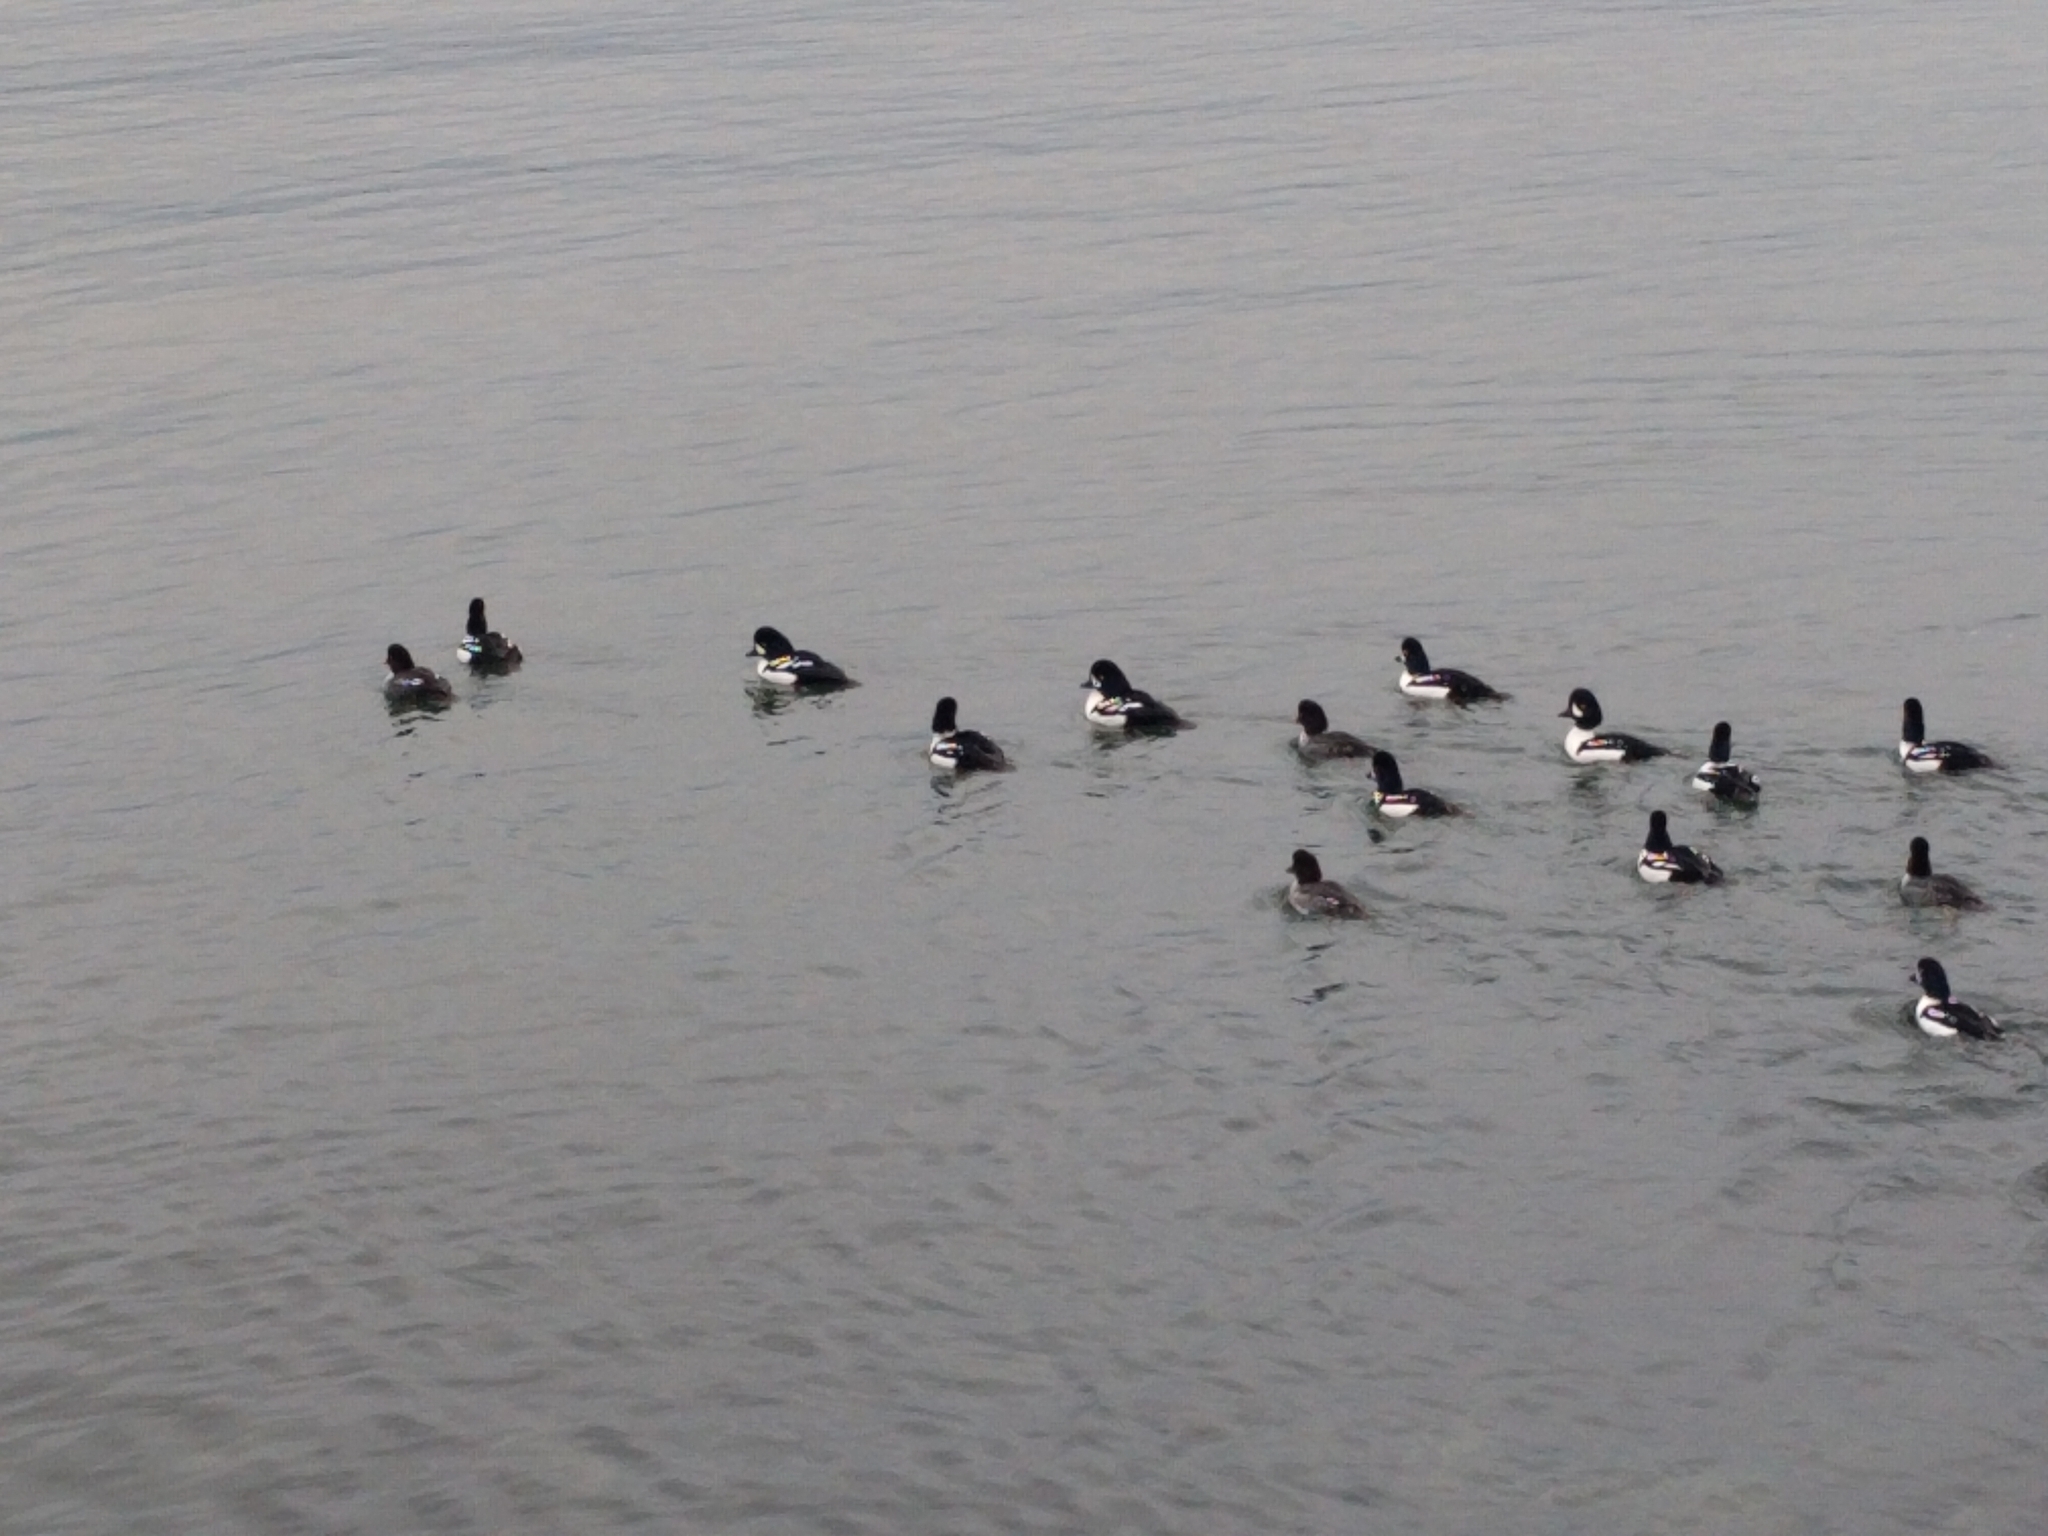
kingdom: Animalia
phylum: Chordata
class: Aves
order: Anseriformes
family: Anatidae
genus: Bucephala
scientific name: Bucephala islandica
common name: Barrow's goldeneye
